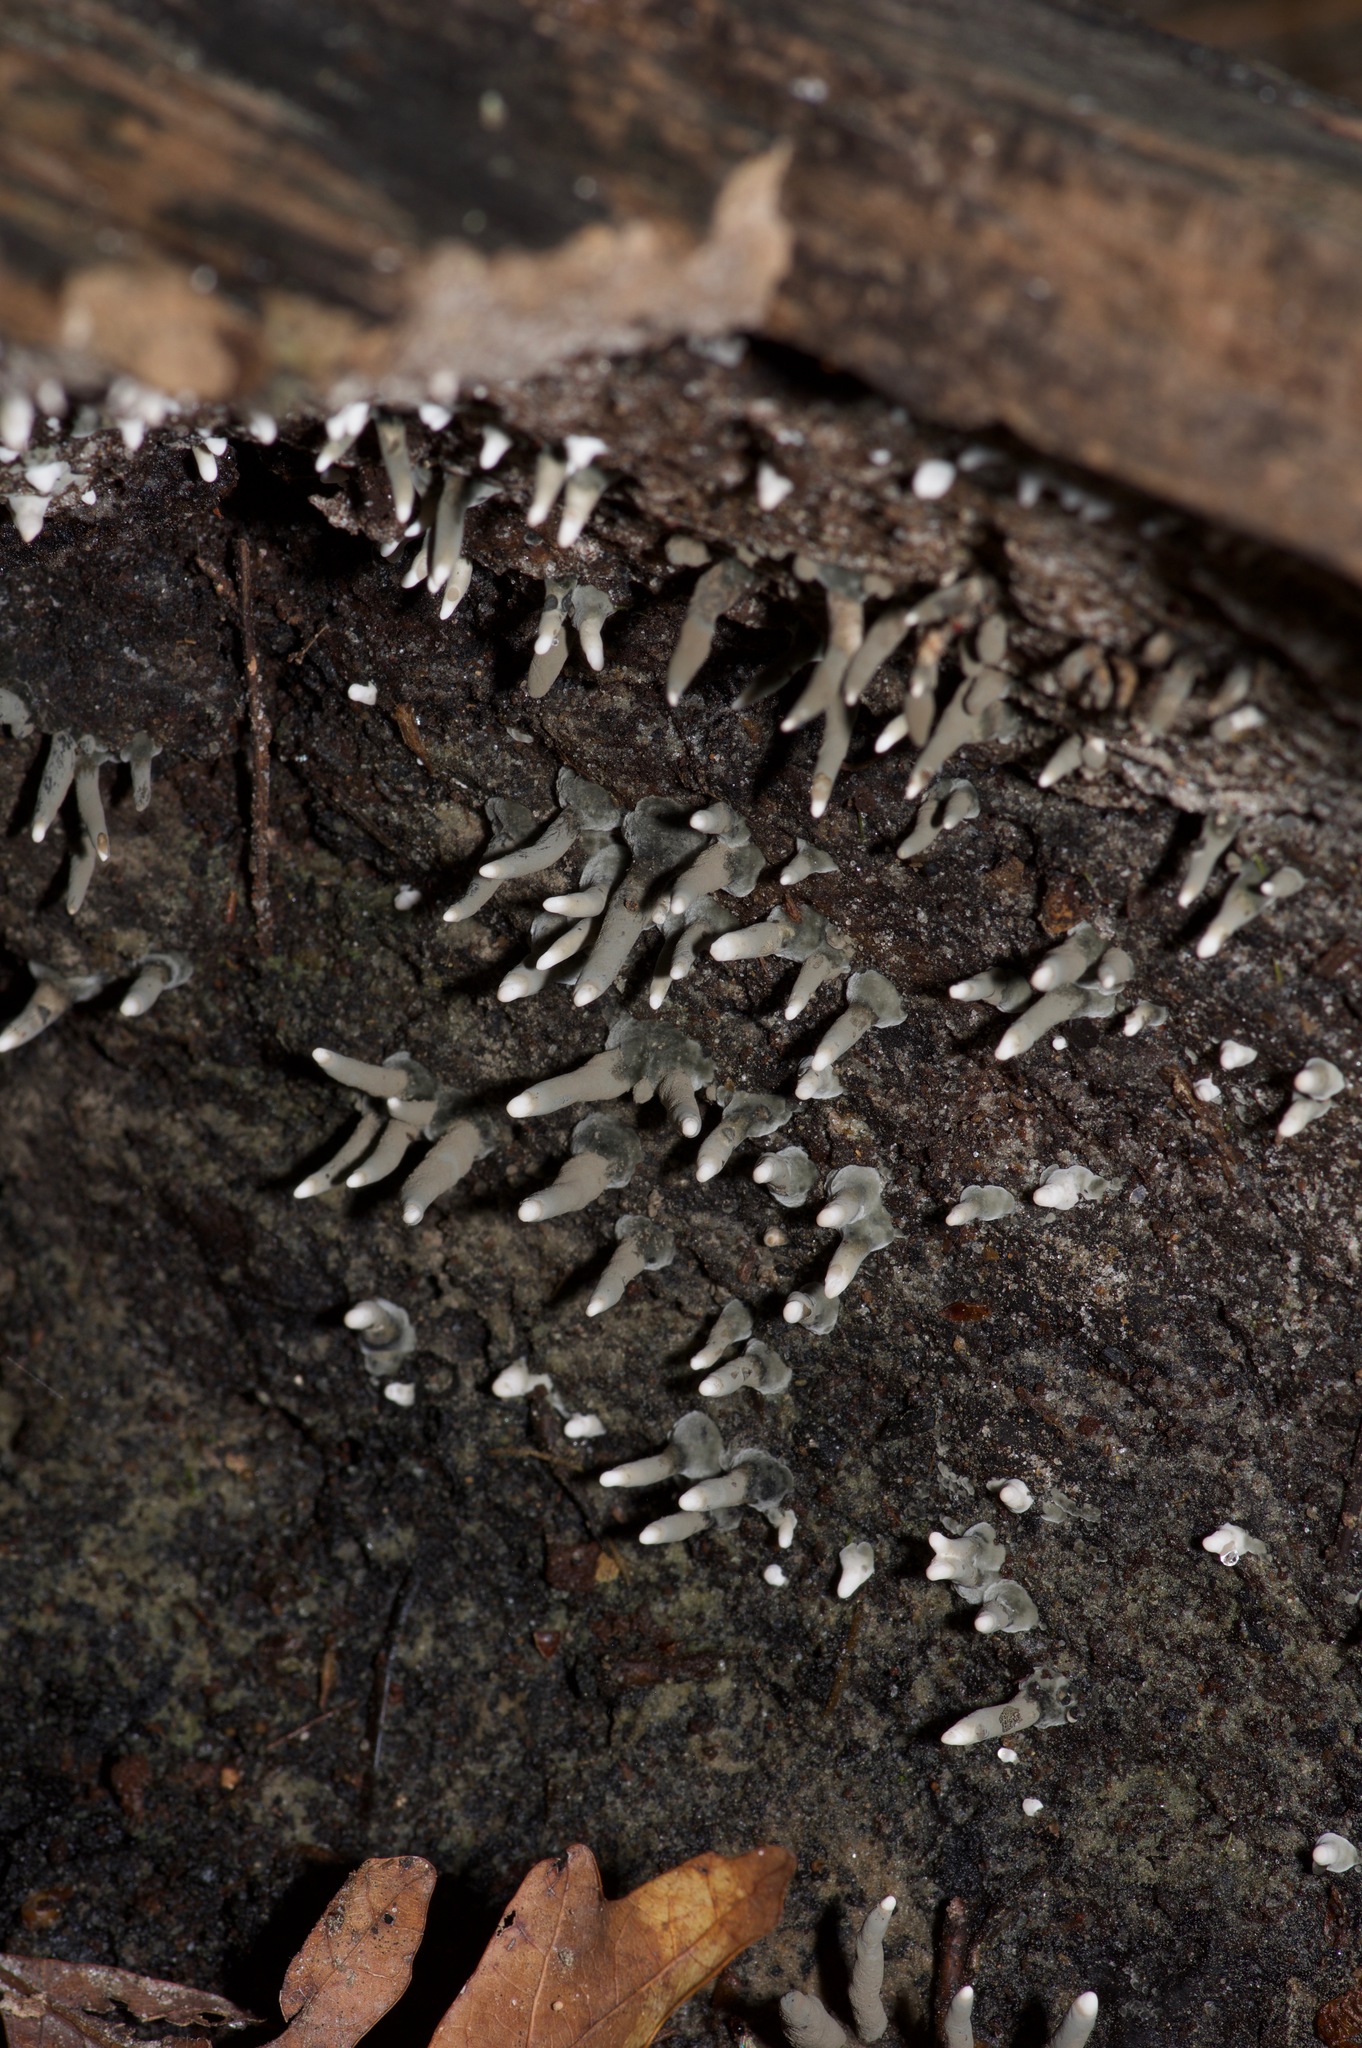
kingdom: Fungi
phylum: Ascomycota
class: Sordariomycetes
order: Xylariales
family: Xylariaceae
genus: Xylaria
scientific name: Xylaria polymorpha
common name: Dead man's fingers
